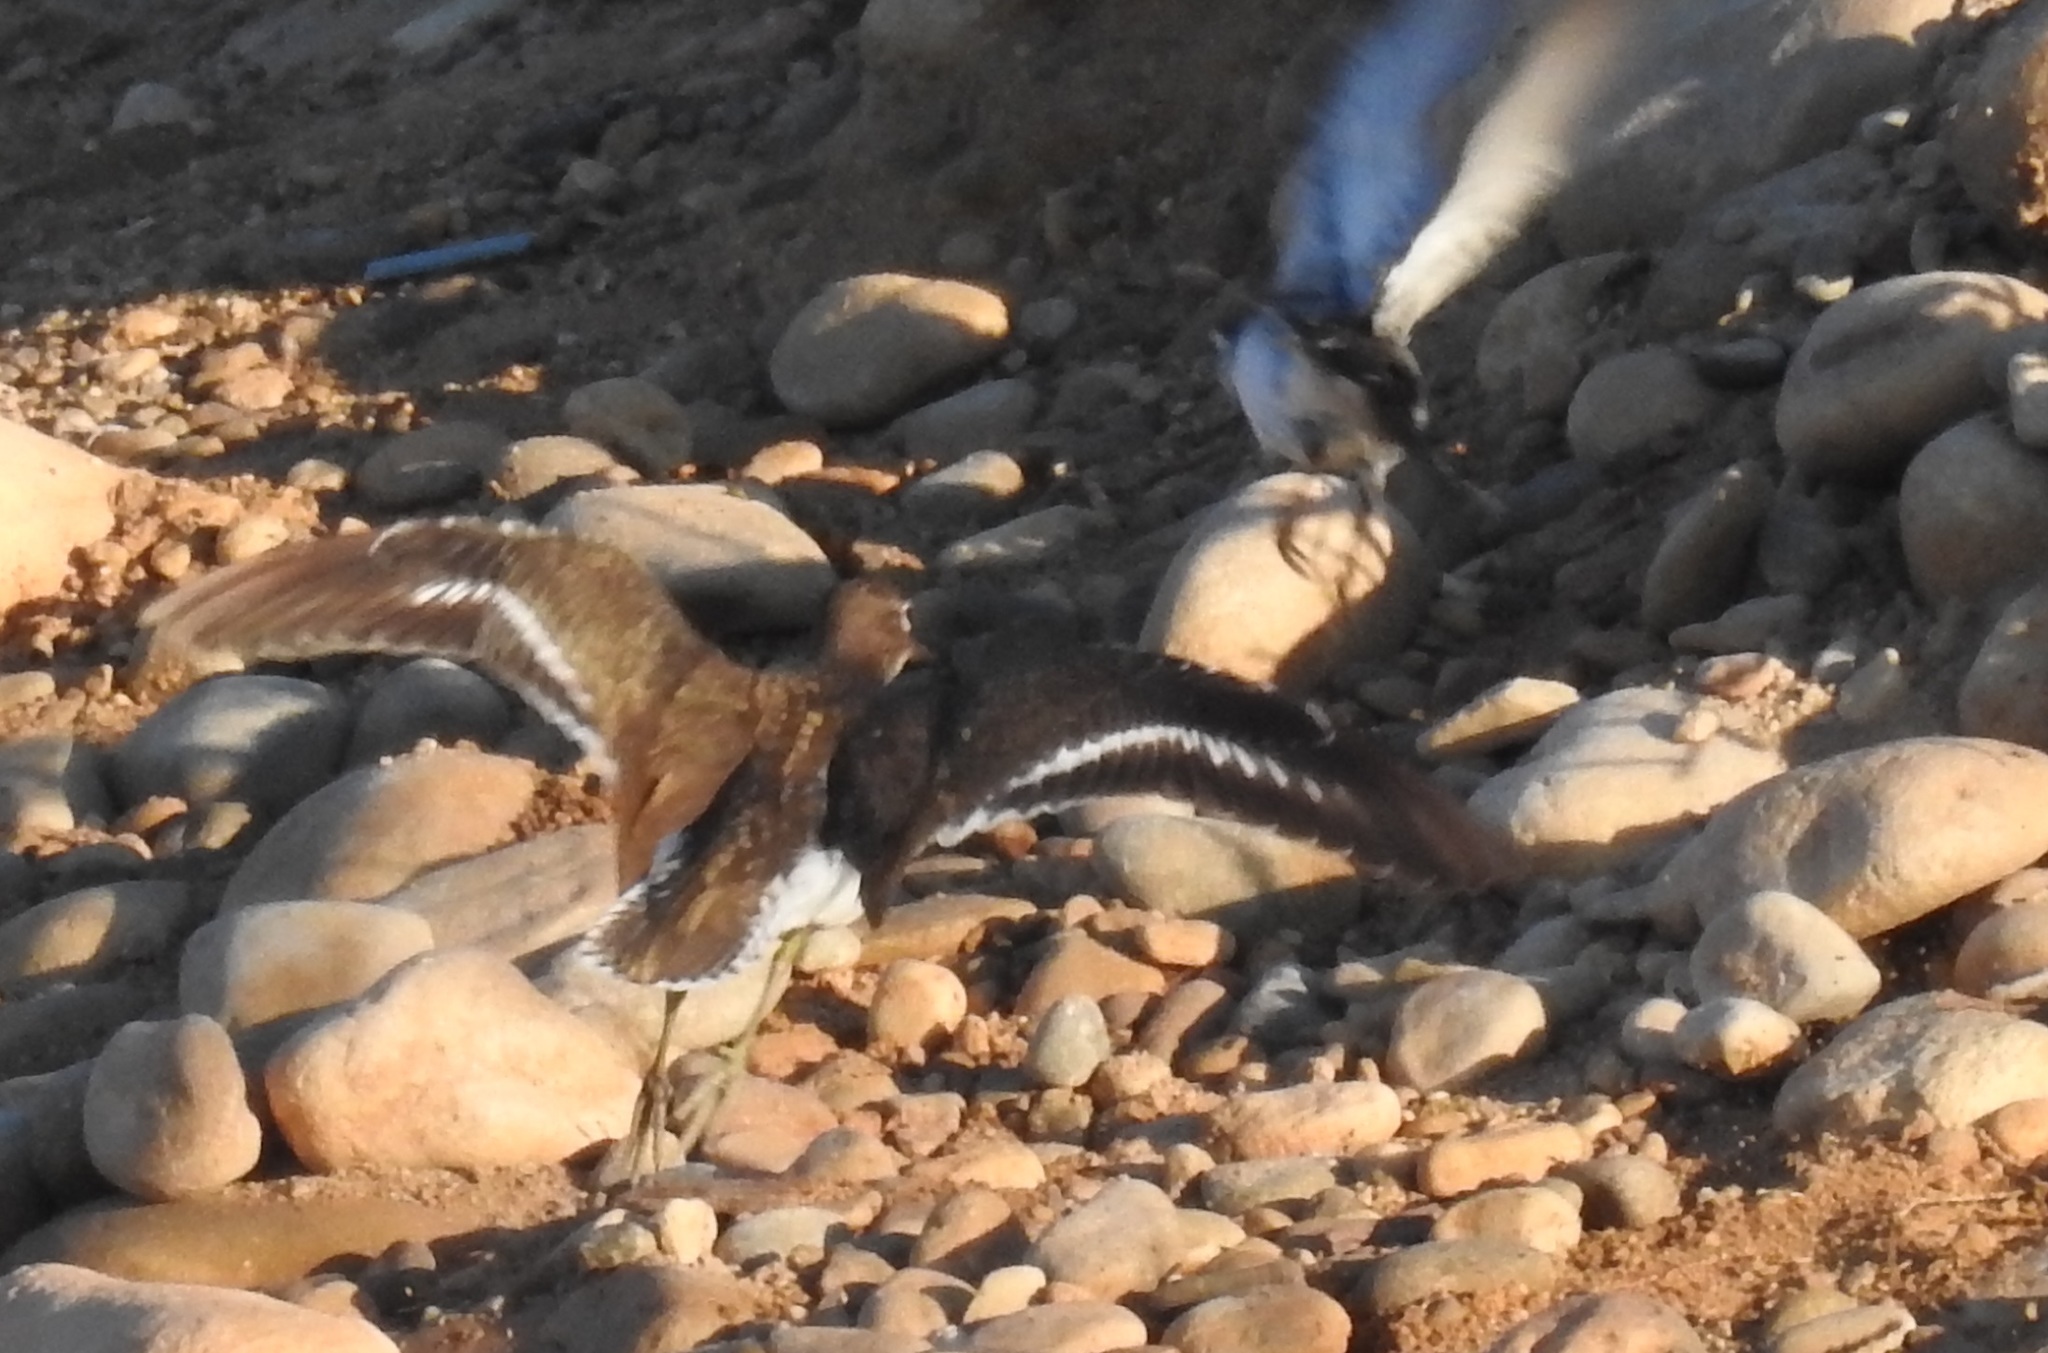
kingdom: Animalia
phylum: Chordata
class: Aves
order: Charadriiformes
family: Scolopacidae
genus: Actitis
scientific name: Actitis hypoleucos
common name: Common sandpiper
